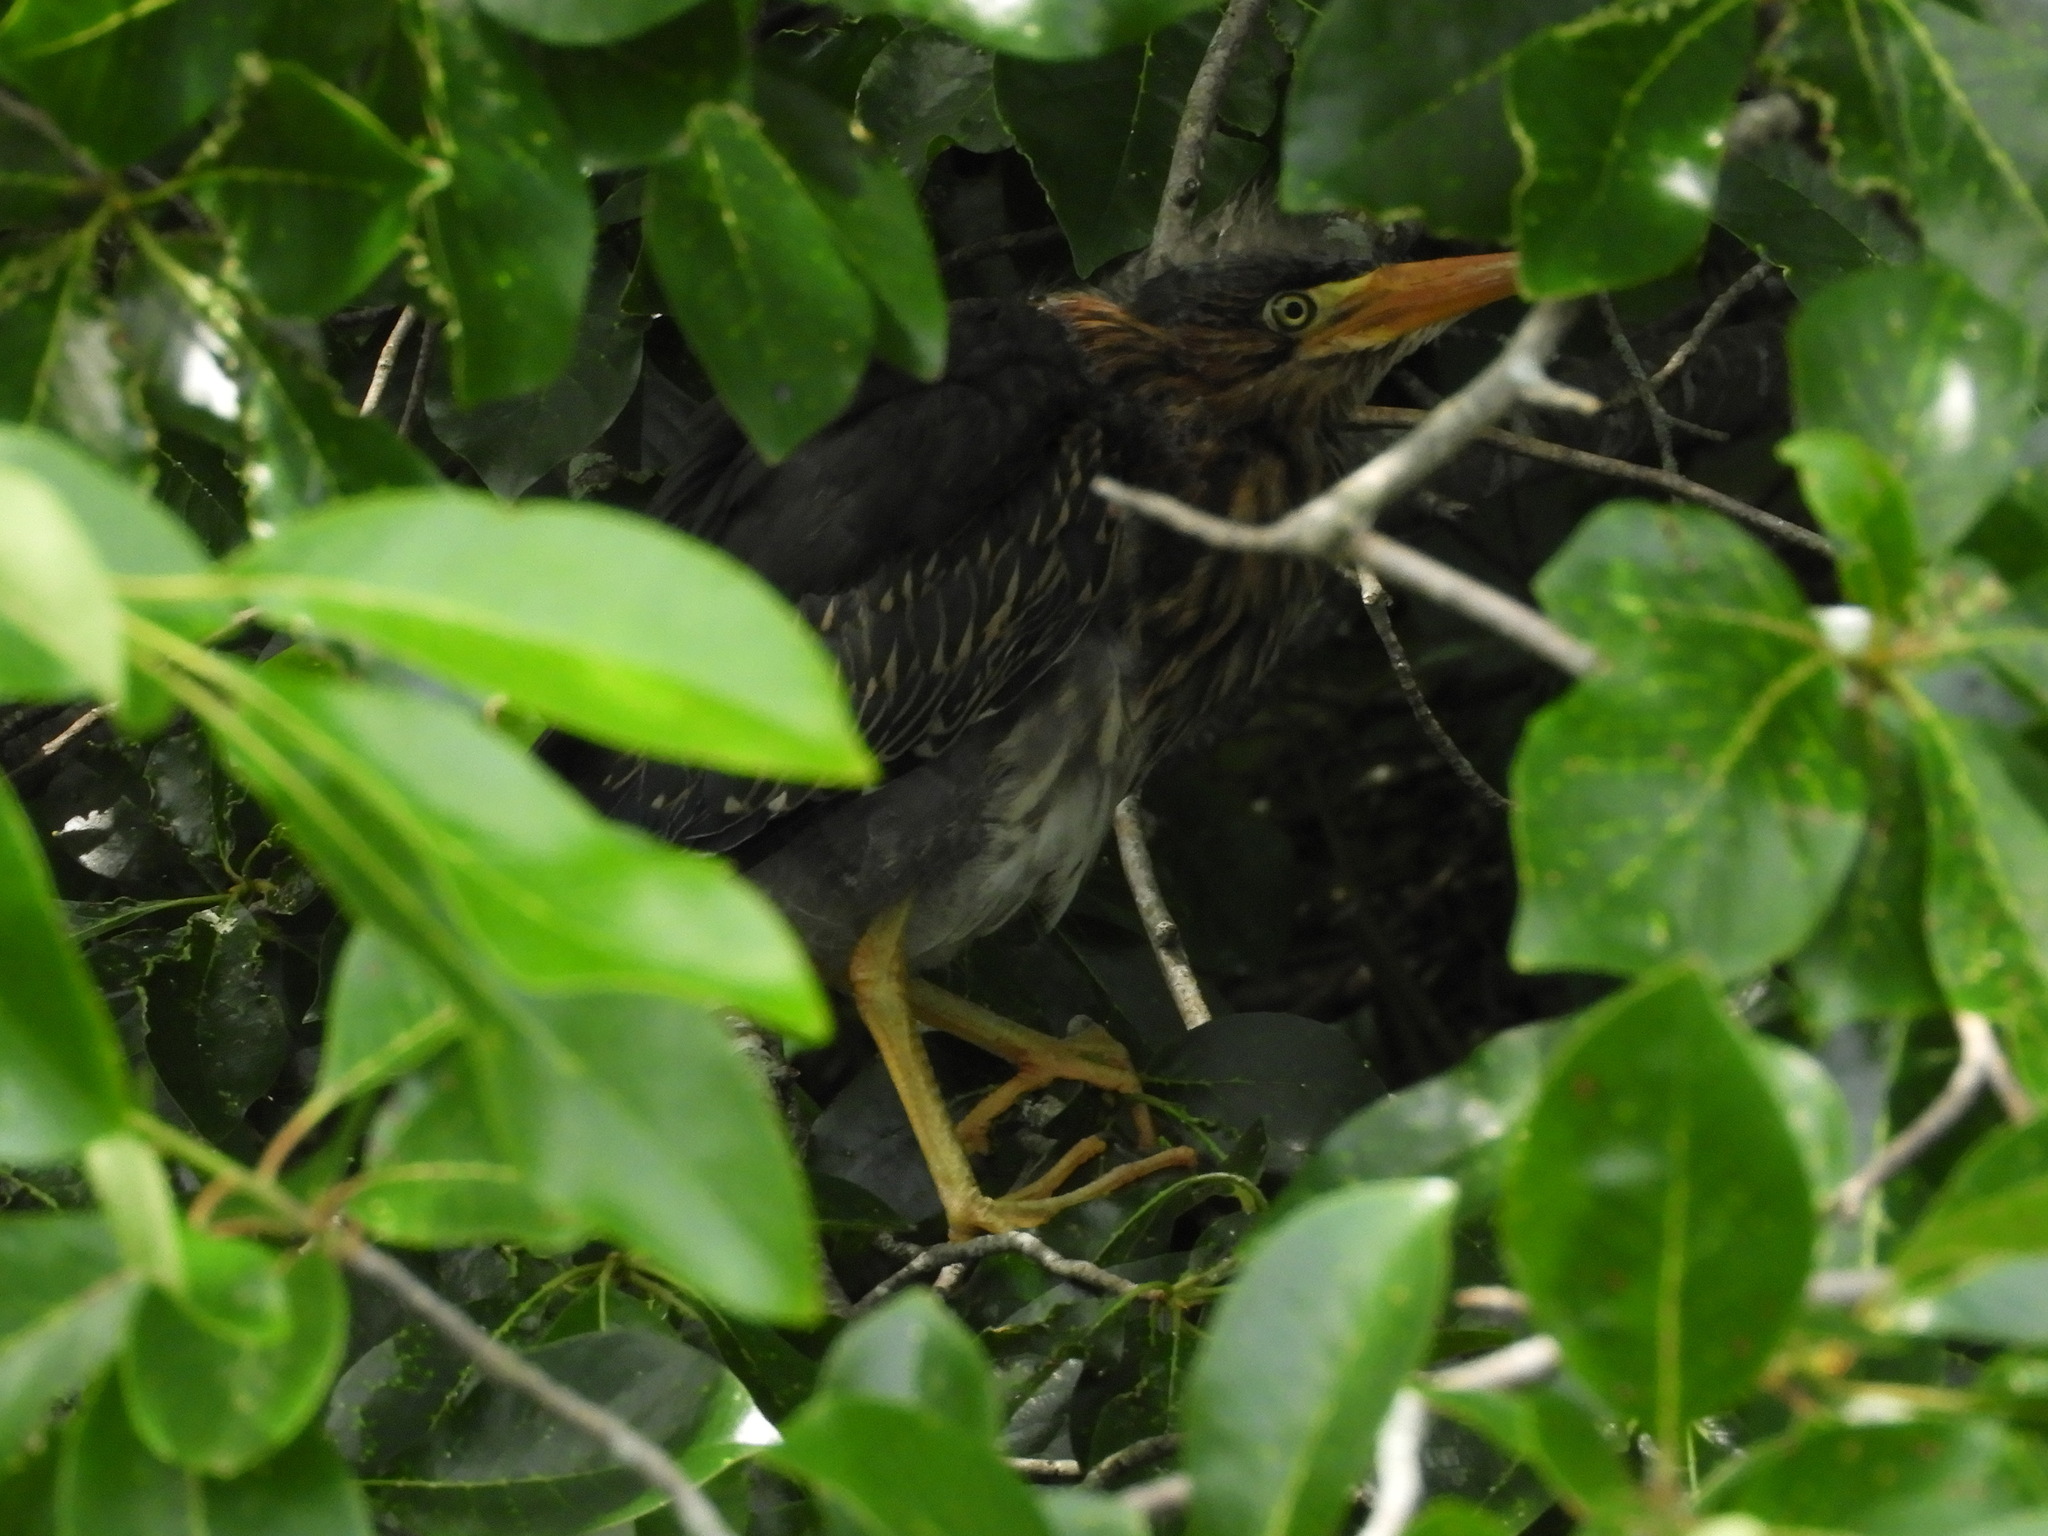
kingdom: Animalia
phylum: Chordata
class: Aves
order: Pelecaniformes
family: Ardeidae
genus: Butorides
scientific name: Butorides virescens
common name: Green heron
